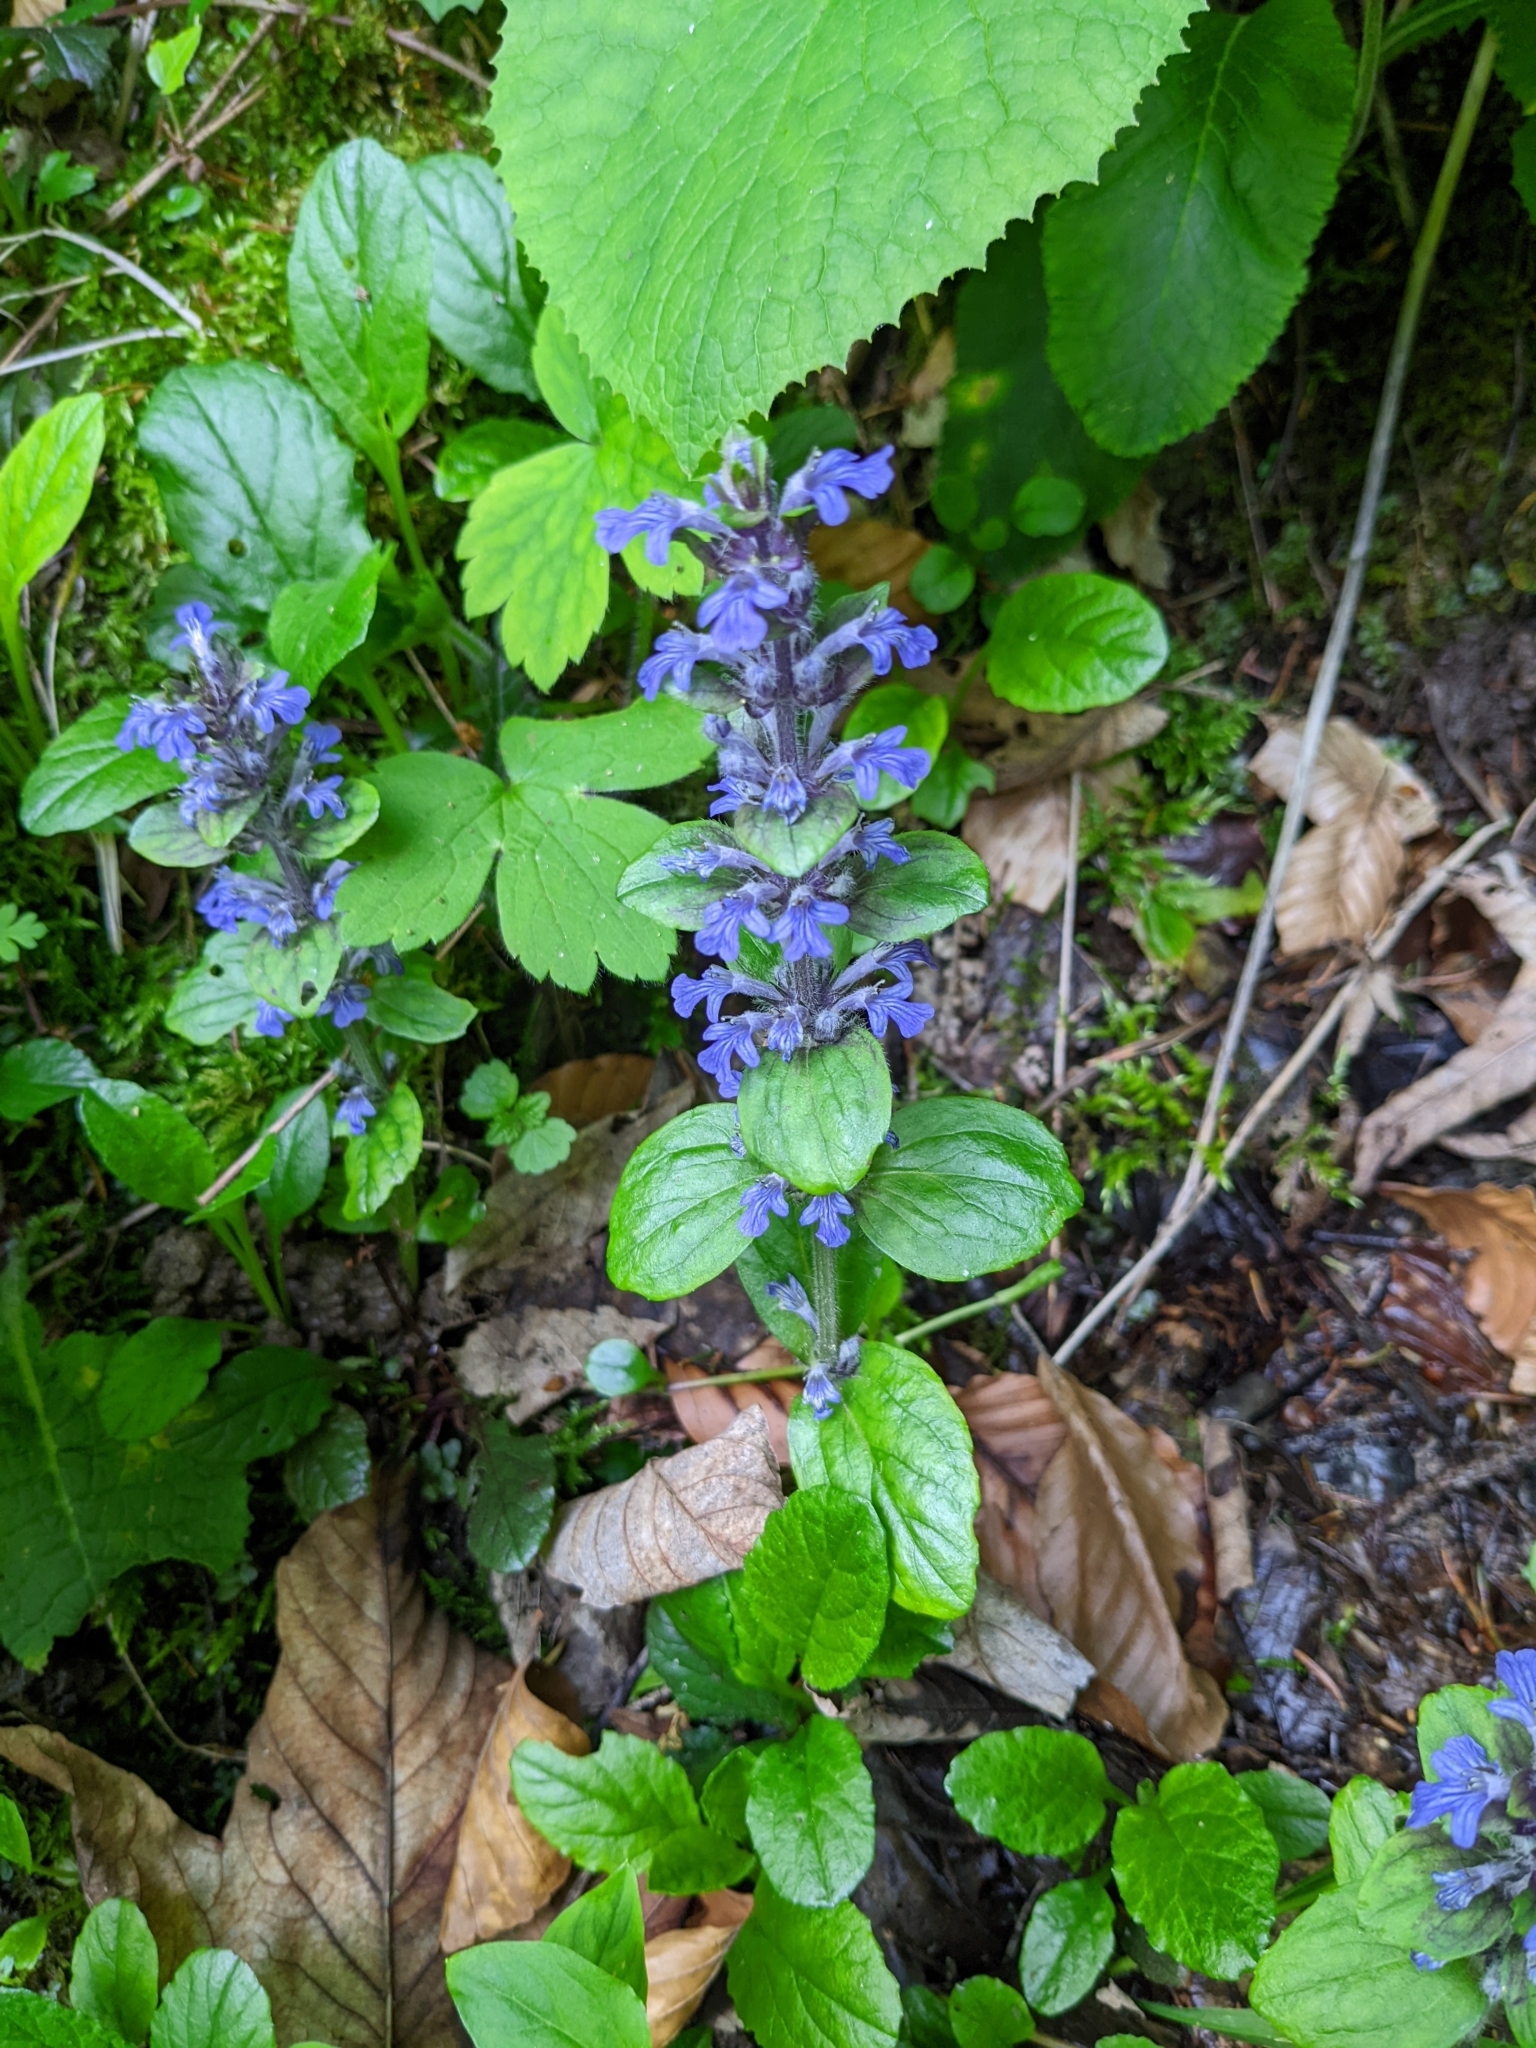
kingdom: Plantae
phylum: Tracheophyta
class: Magnoliopsida
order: Lamiales
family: Lamiaceae
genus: Ajuga
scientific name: Ajuga reptans
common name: Bugle
